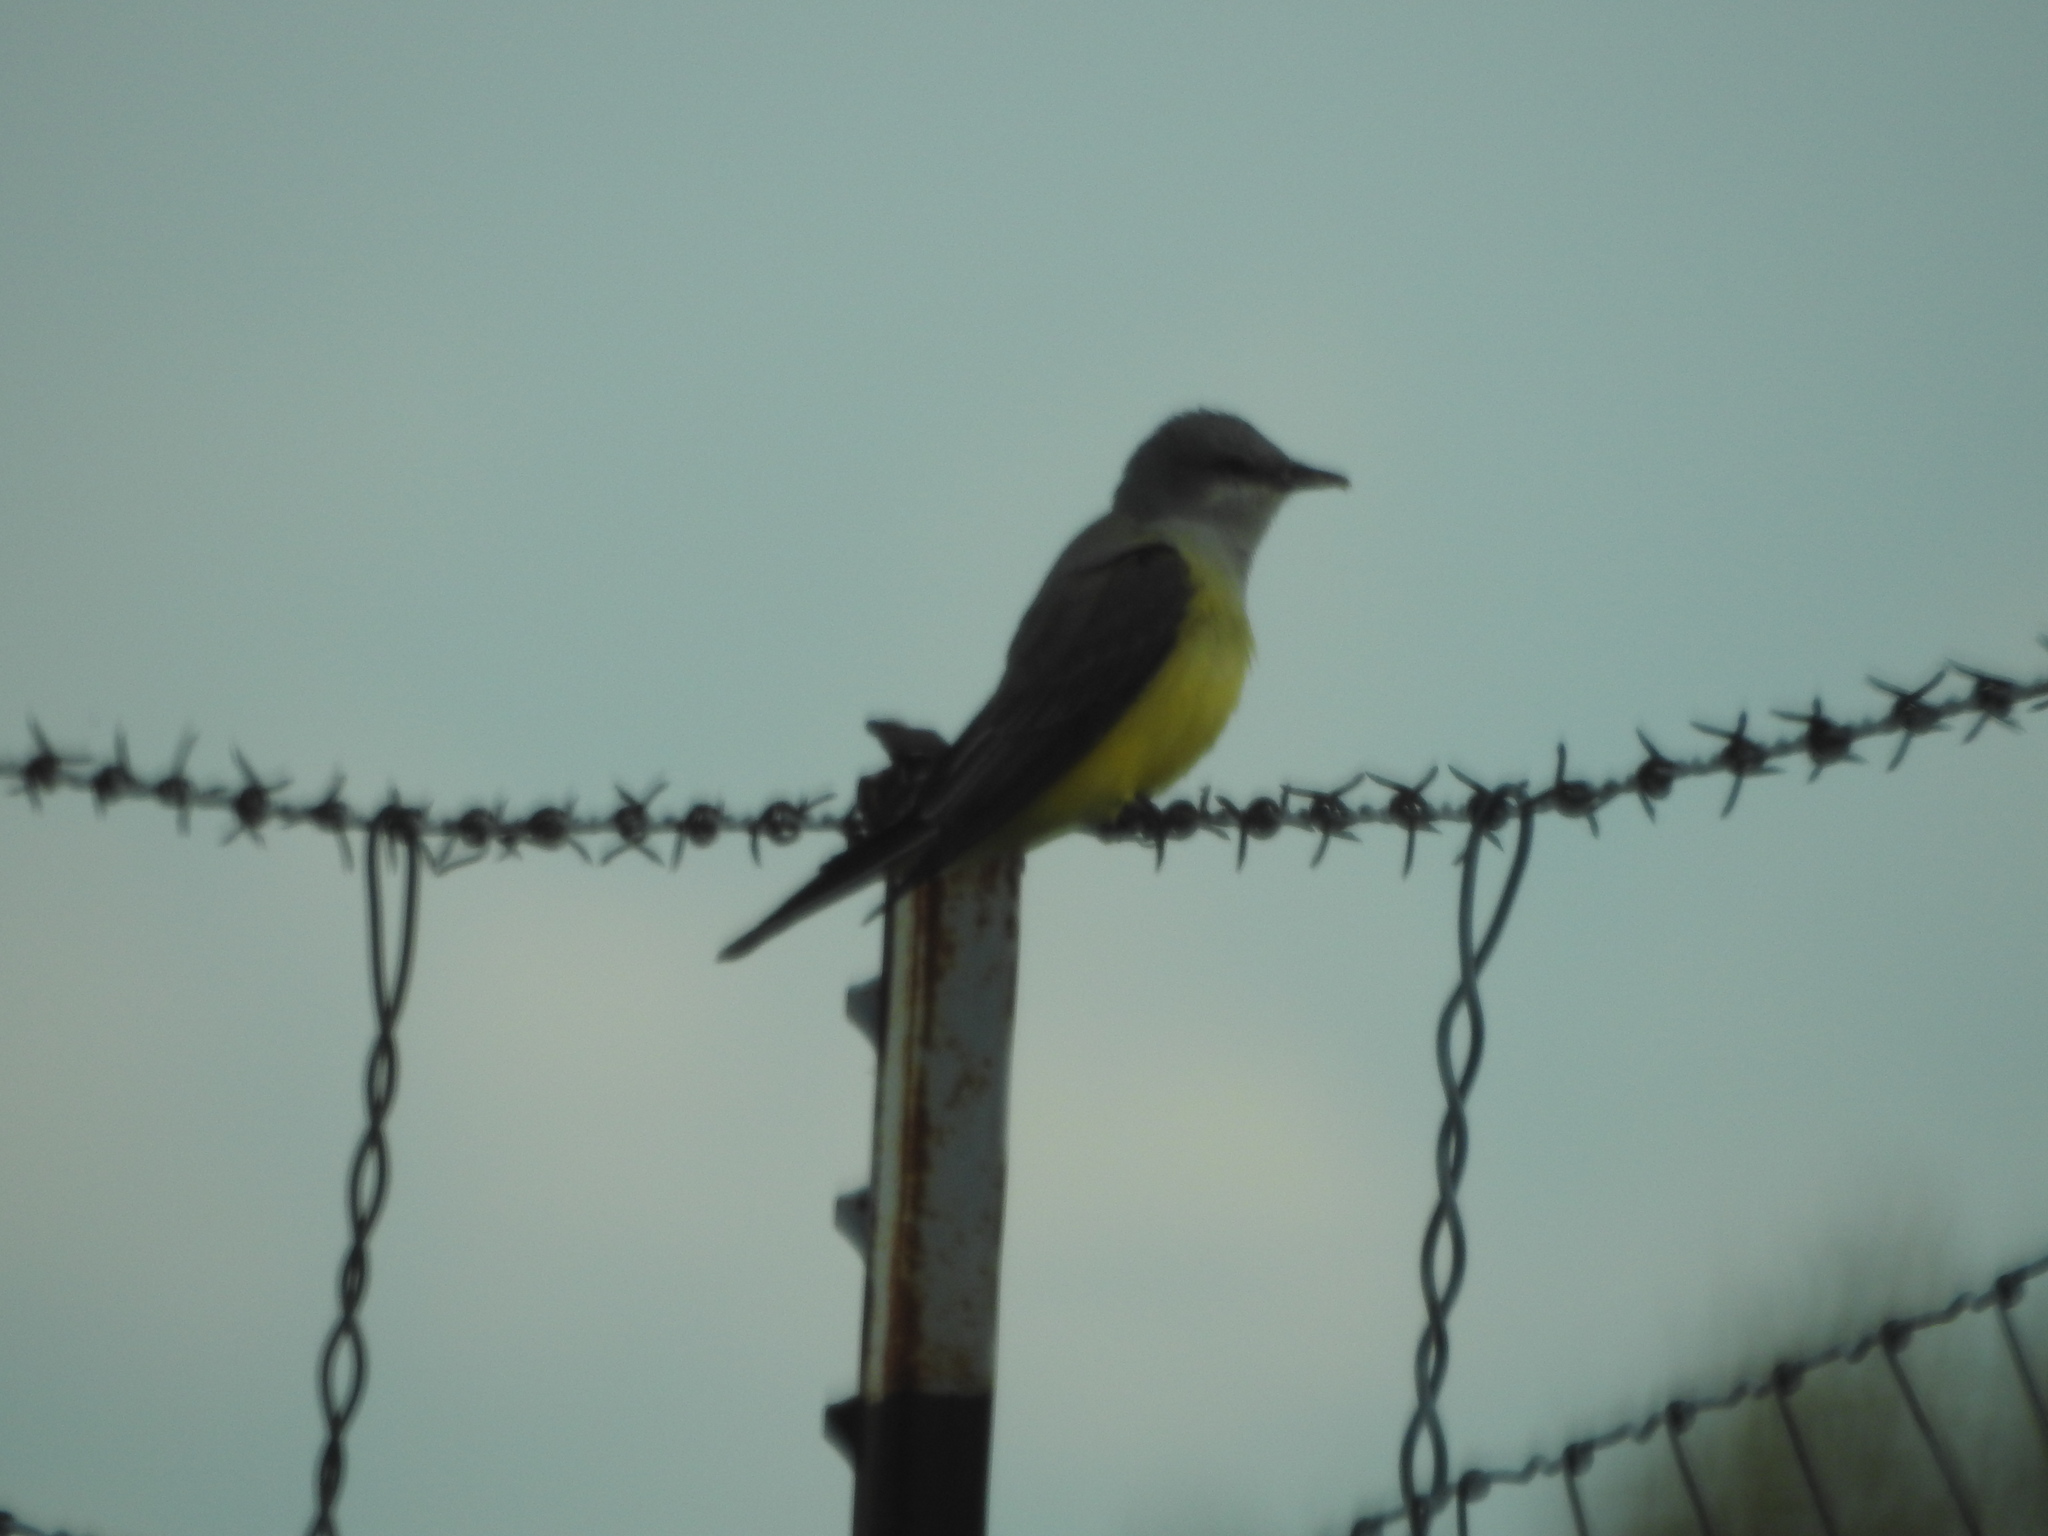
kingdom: Animalia
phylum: Chordata
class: Aves
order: Passeriformes
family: Tyrannidae
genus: Tyrannus
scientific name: Tyrannus verticalis
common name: Western kingbird
